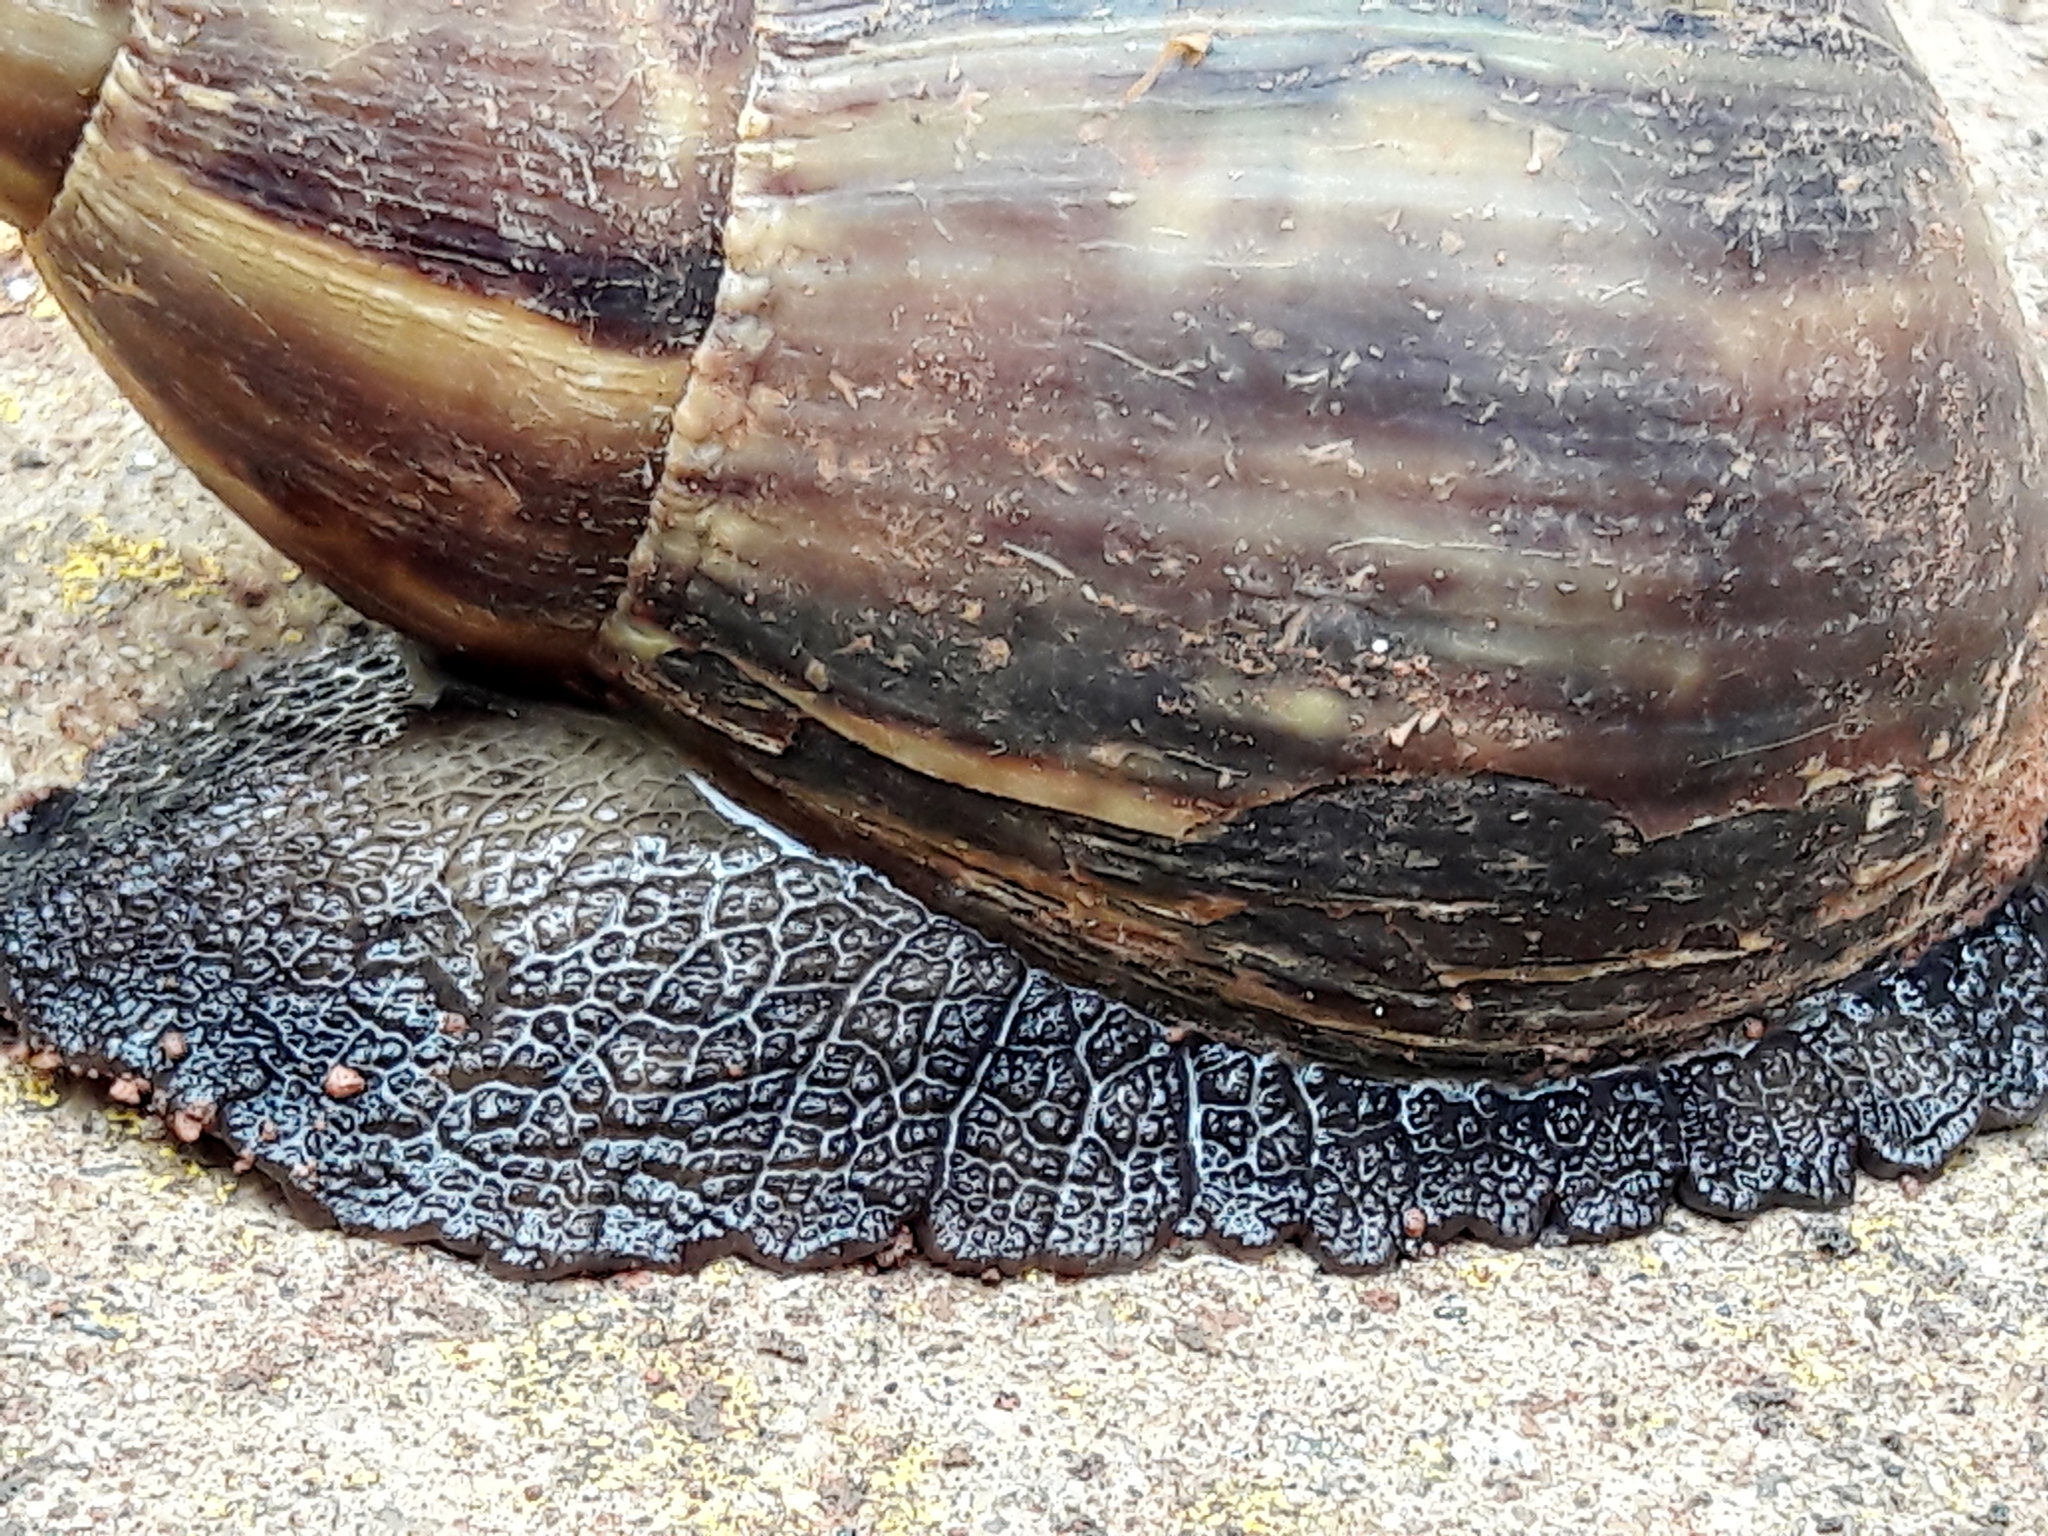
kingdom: Animalia
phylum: Mollusca
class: Gastropoda
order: Stylommatophora
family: Achatinidae
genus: Lissachatina
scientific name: Lissachatina fulica
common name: Giant african snail
